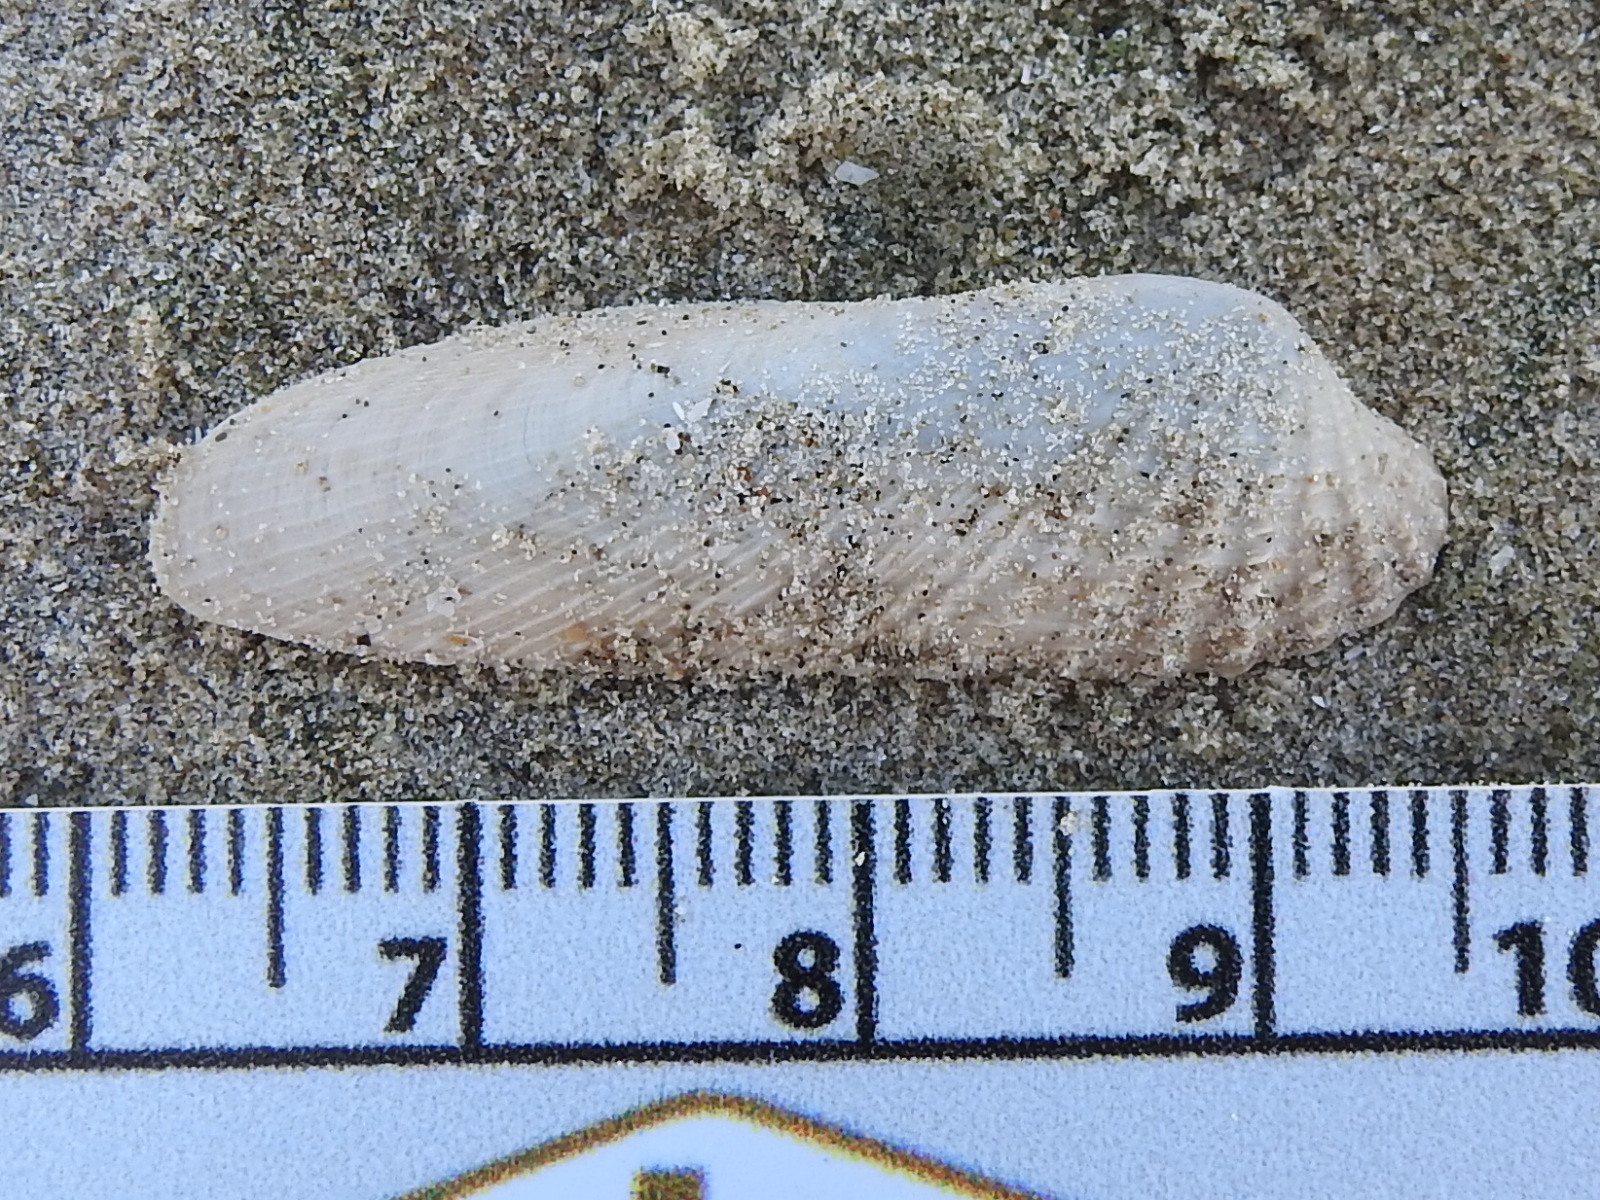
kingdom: Animalia
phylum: Mollusca
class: Bivalvia
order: Venerida
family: Veneridae
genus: Petricolaria
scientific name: Petricolaria pholadiformis
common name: American piddock
